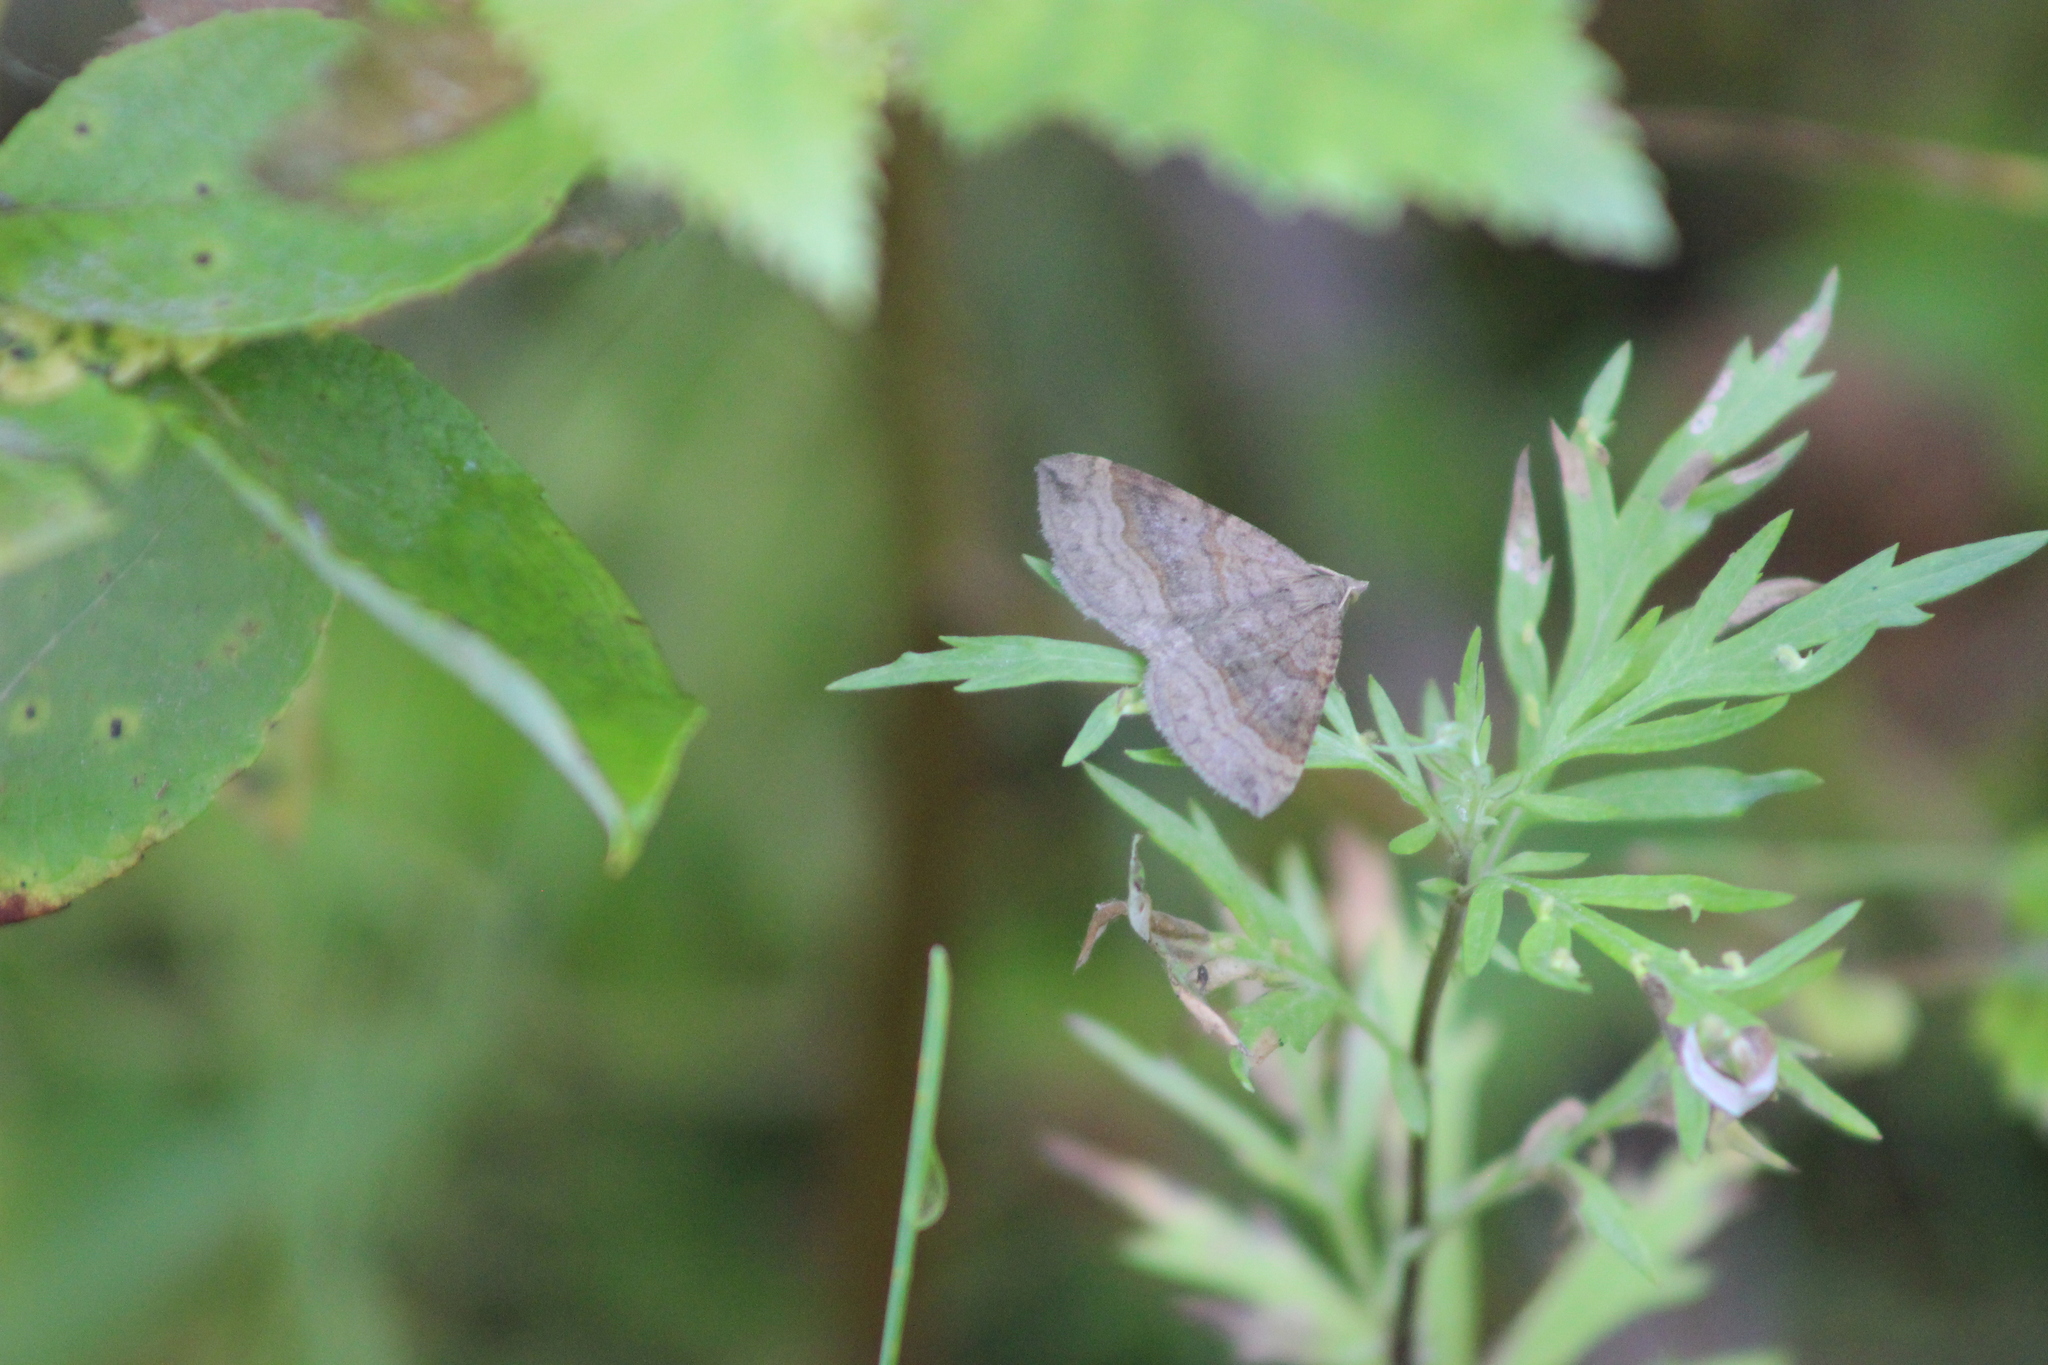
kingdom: Animalia
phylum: Arthropoda
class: Insecta
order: Lepidoptera
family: Geometridae
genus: Scotopteryx
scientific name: Scotopteryx chenopodiata
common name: Shaded broad-bar
